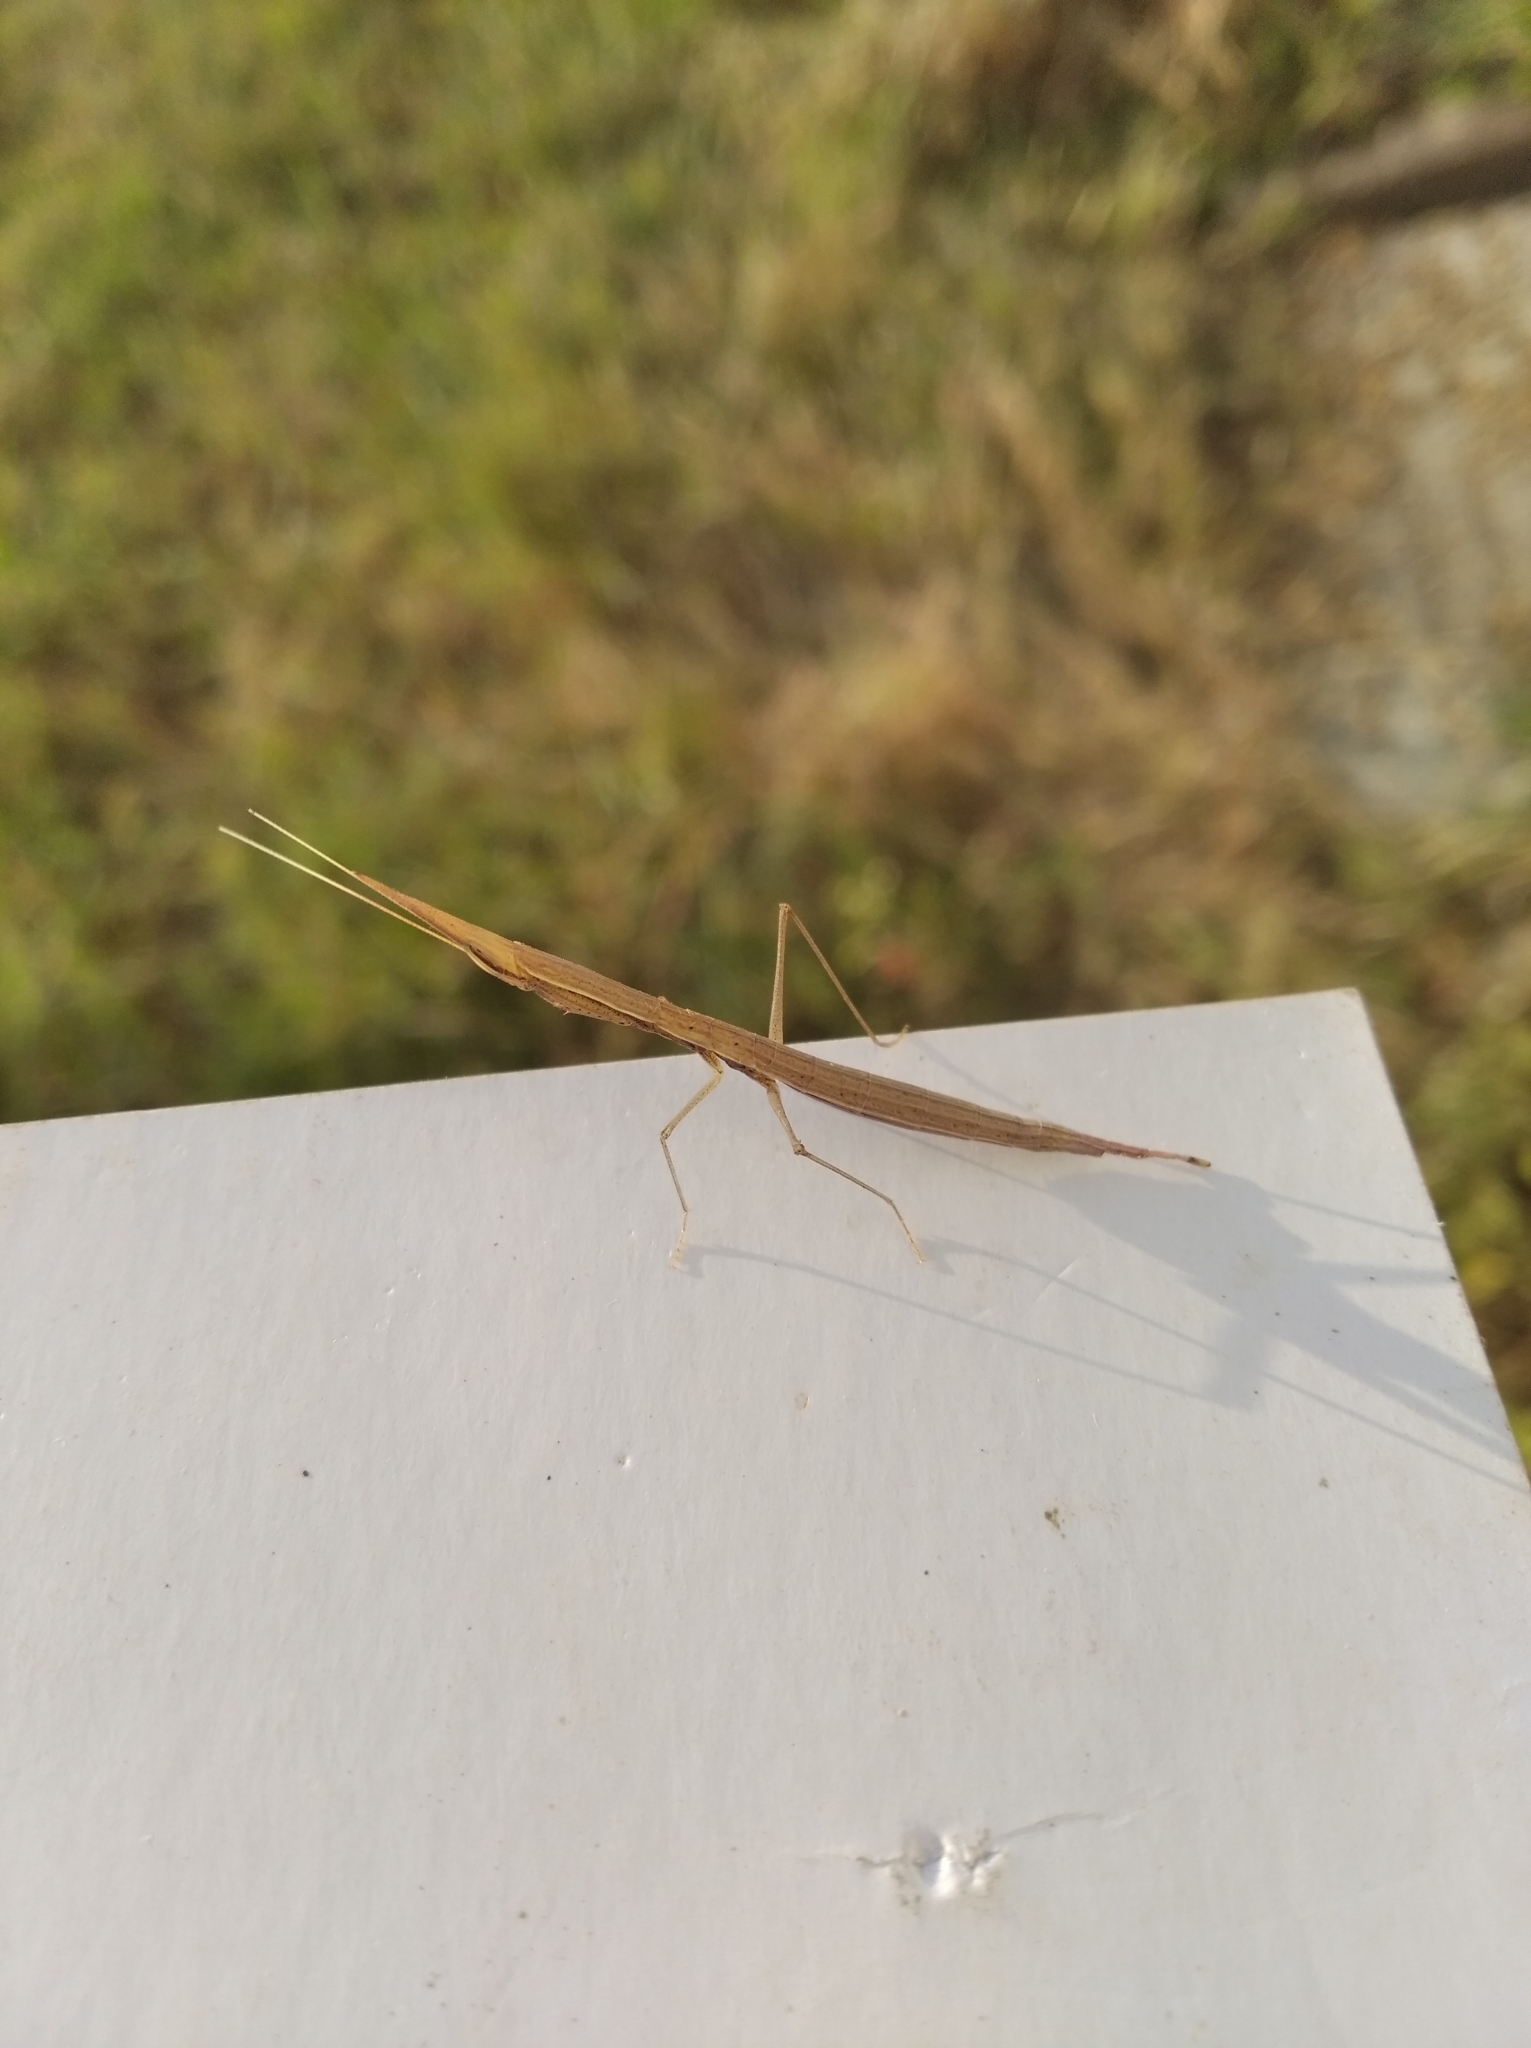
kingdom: Animalia
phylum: Arthropoda
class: Insecta
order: Mantodea
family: Eremiaphilidae
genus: Didymocorypha
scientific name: Didymocorypha lanceolata
